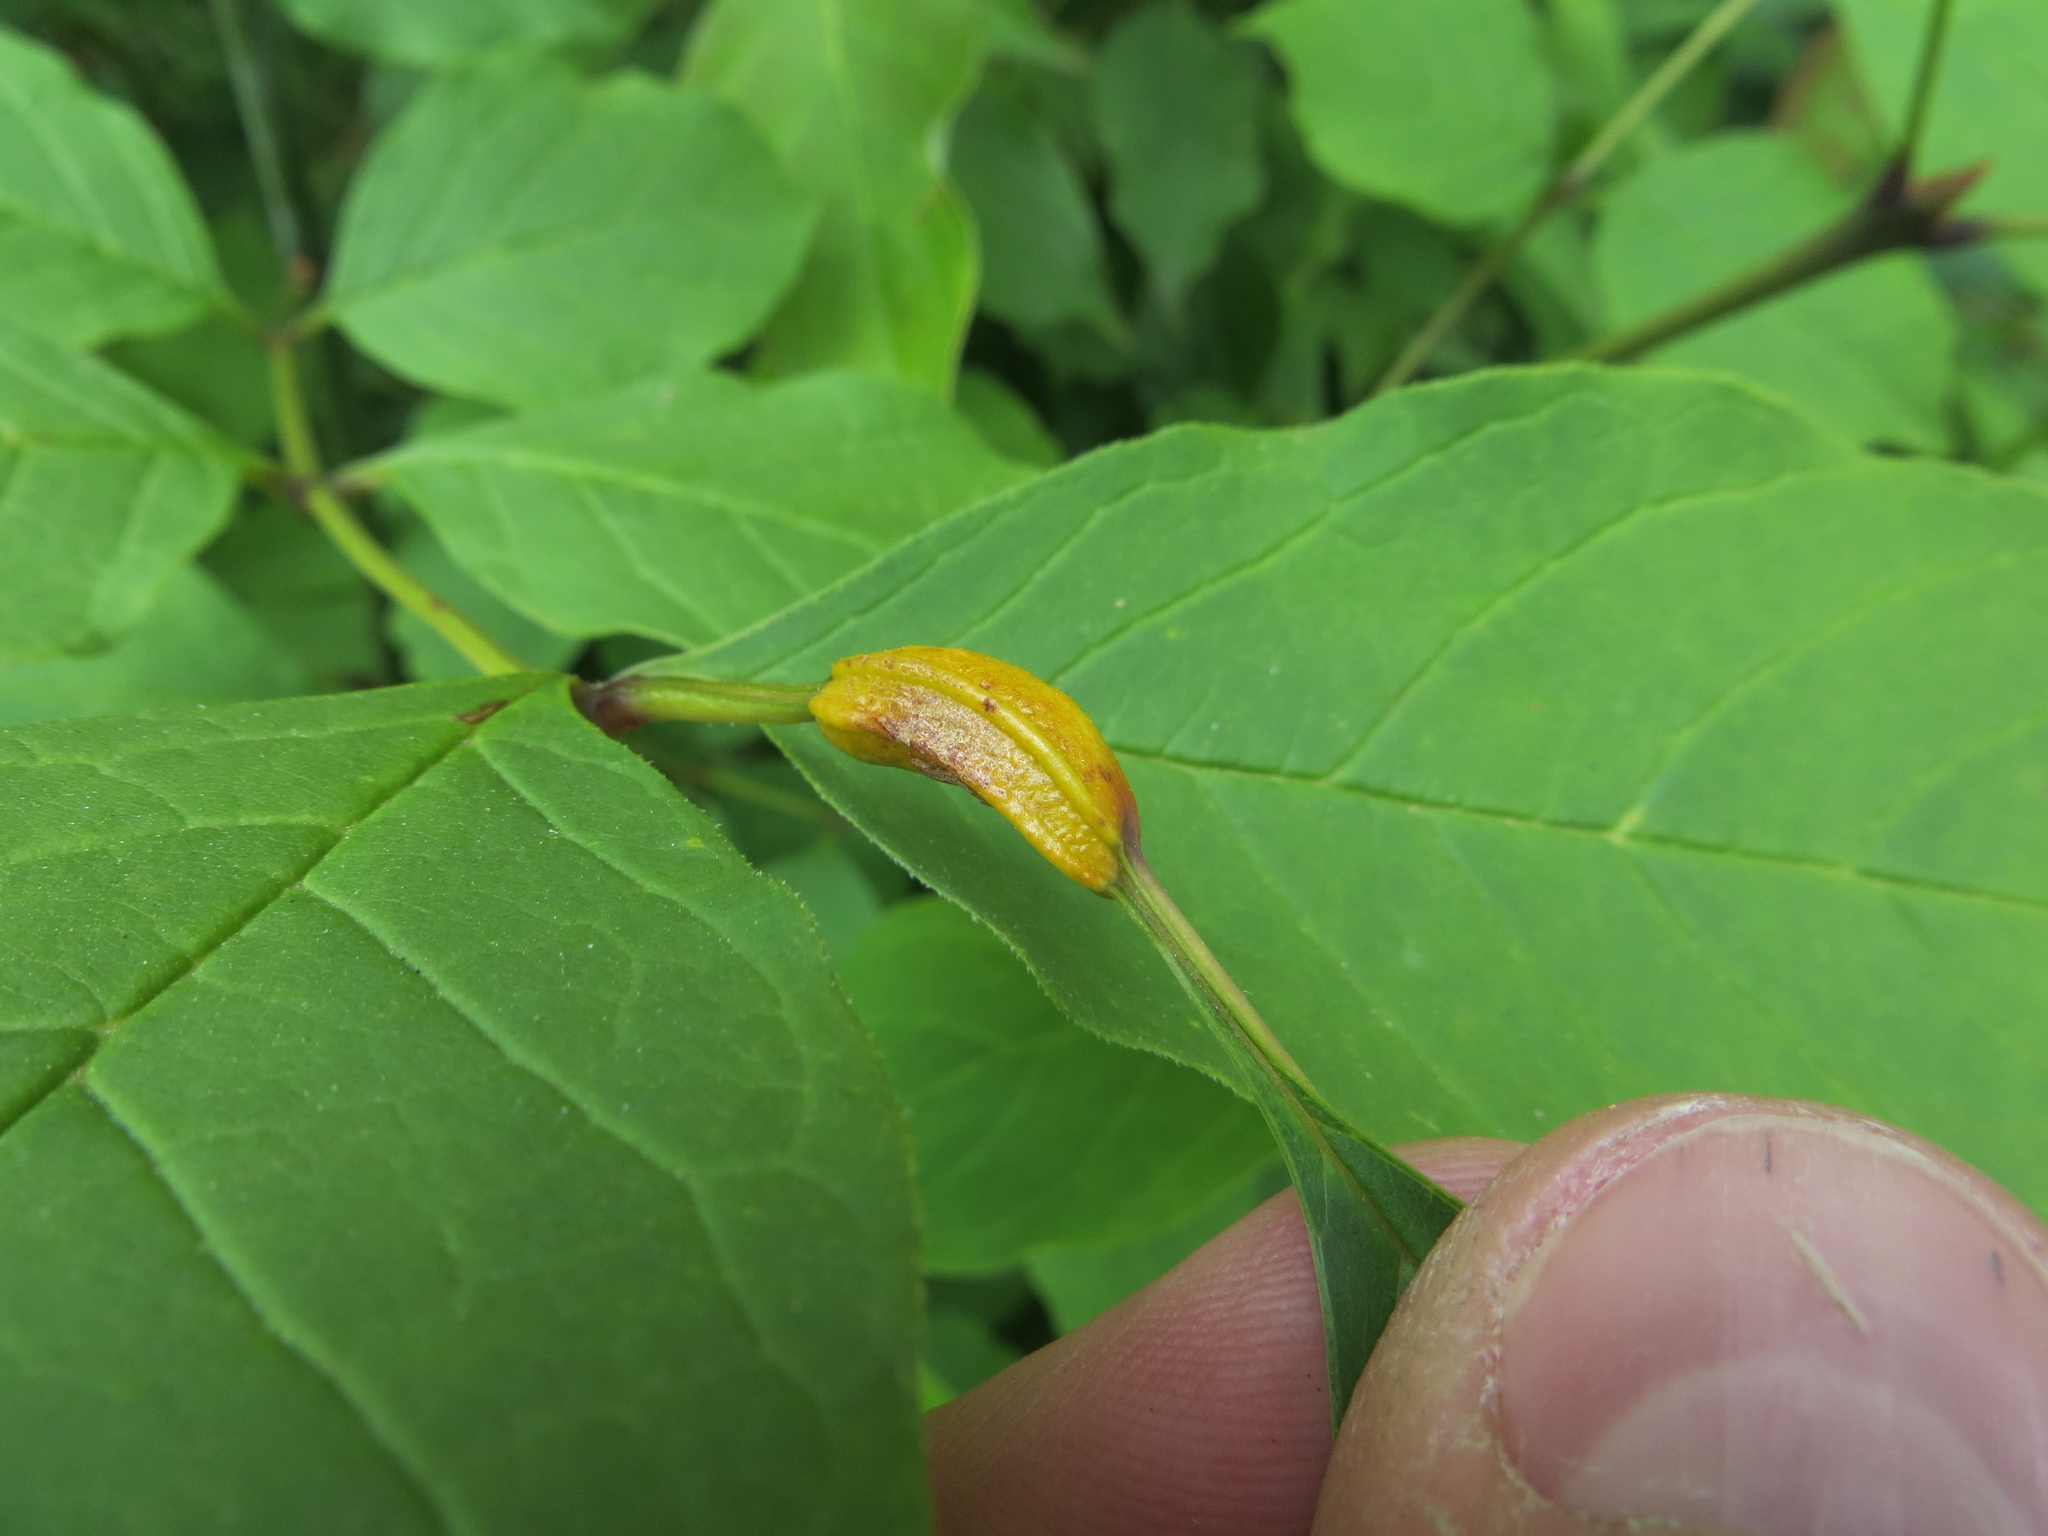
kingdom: Fungi
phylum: Basidiomycota
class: Pucciniomycetes
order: Pucciniales
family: Pucciniaceae
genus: Puccinia
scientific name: Puccinia sparganioidis
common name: Ash rust
